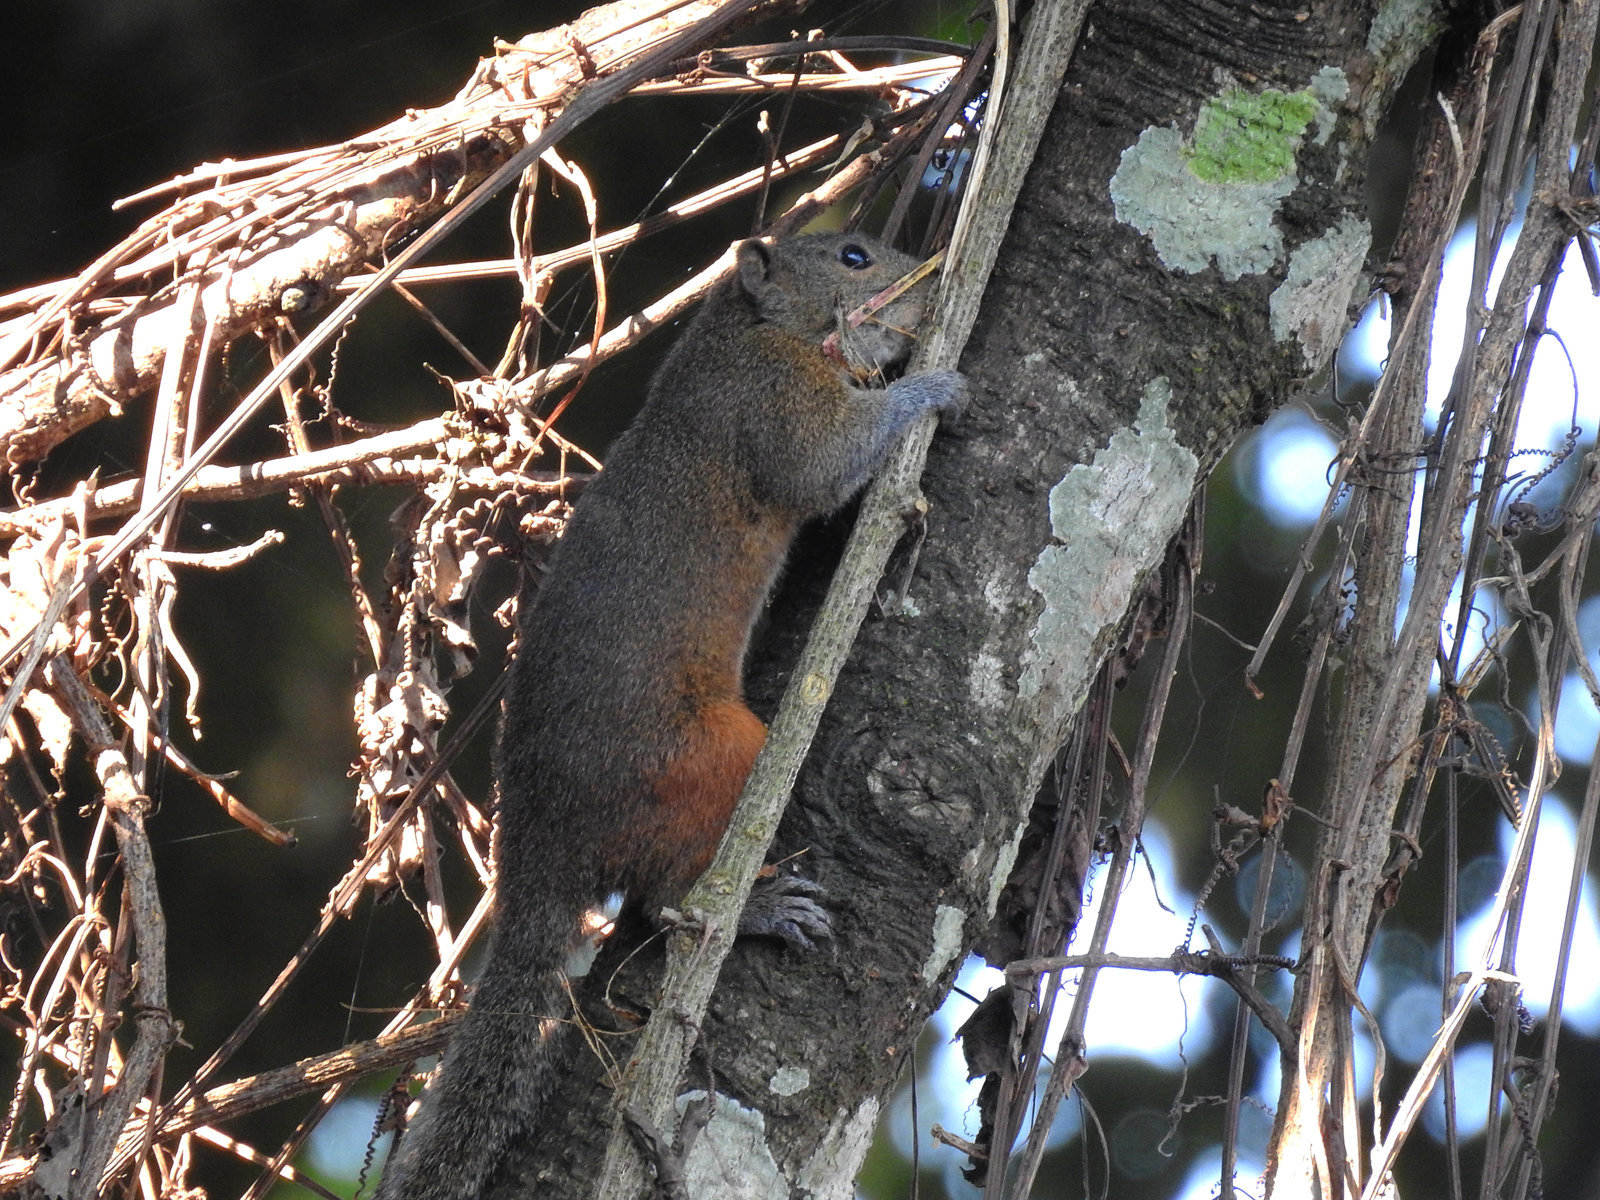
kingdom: Animalia
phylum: Chordata
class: Mammalia
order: Rodentia
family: Sciuridae
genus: Callosciurus
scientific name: Callosciurus pygerythrus
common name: Irrawaddy squirrel
